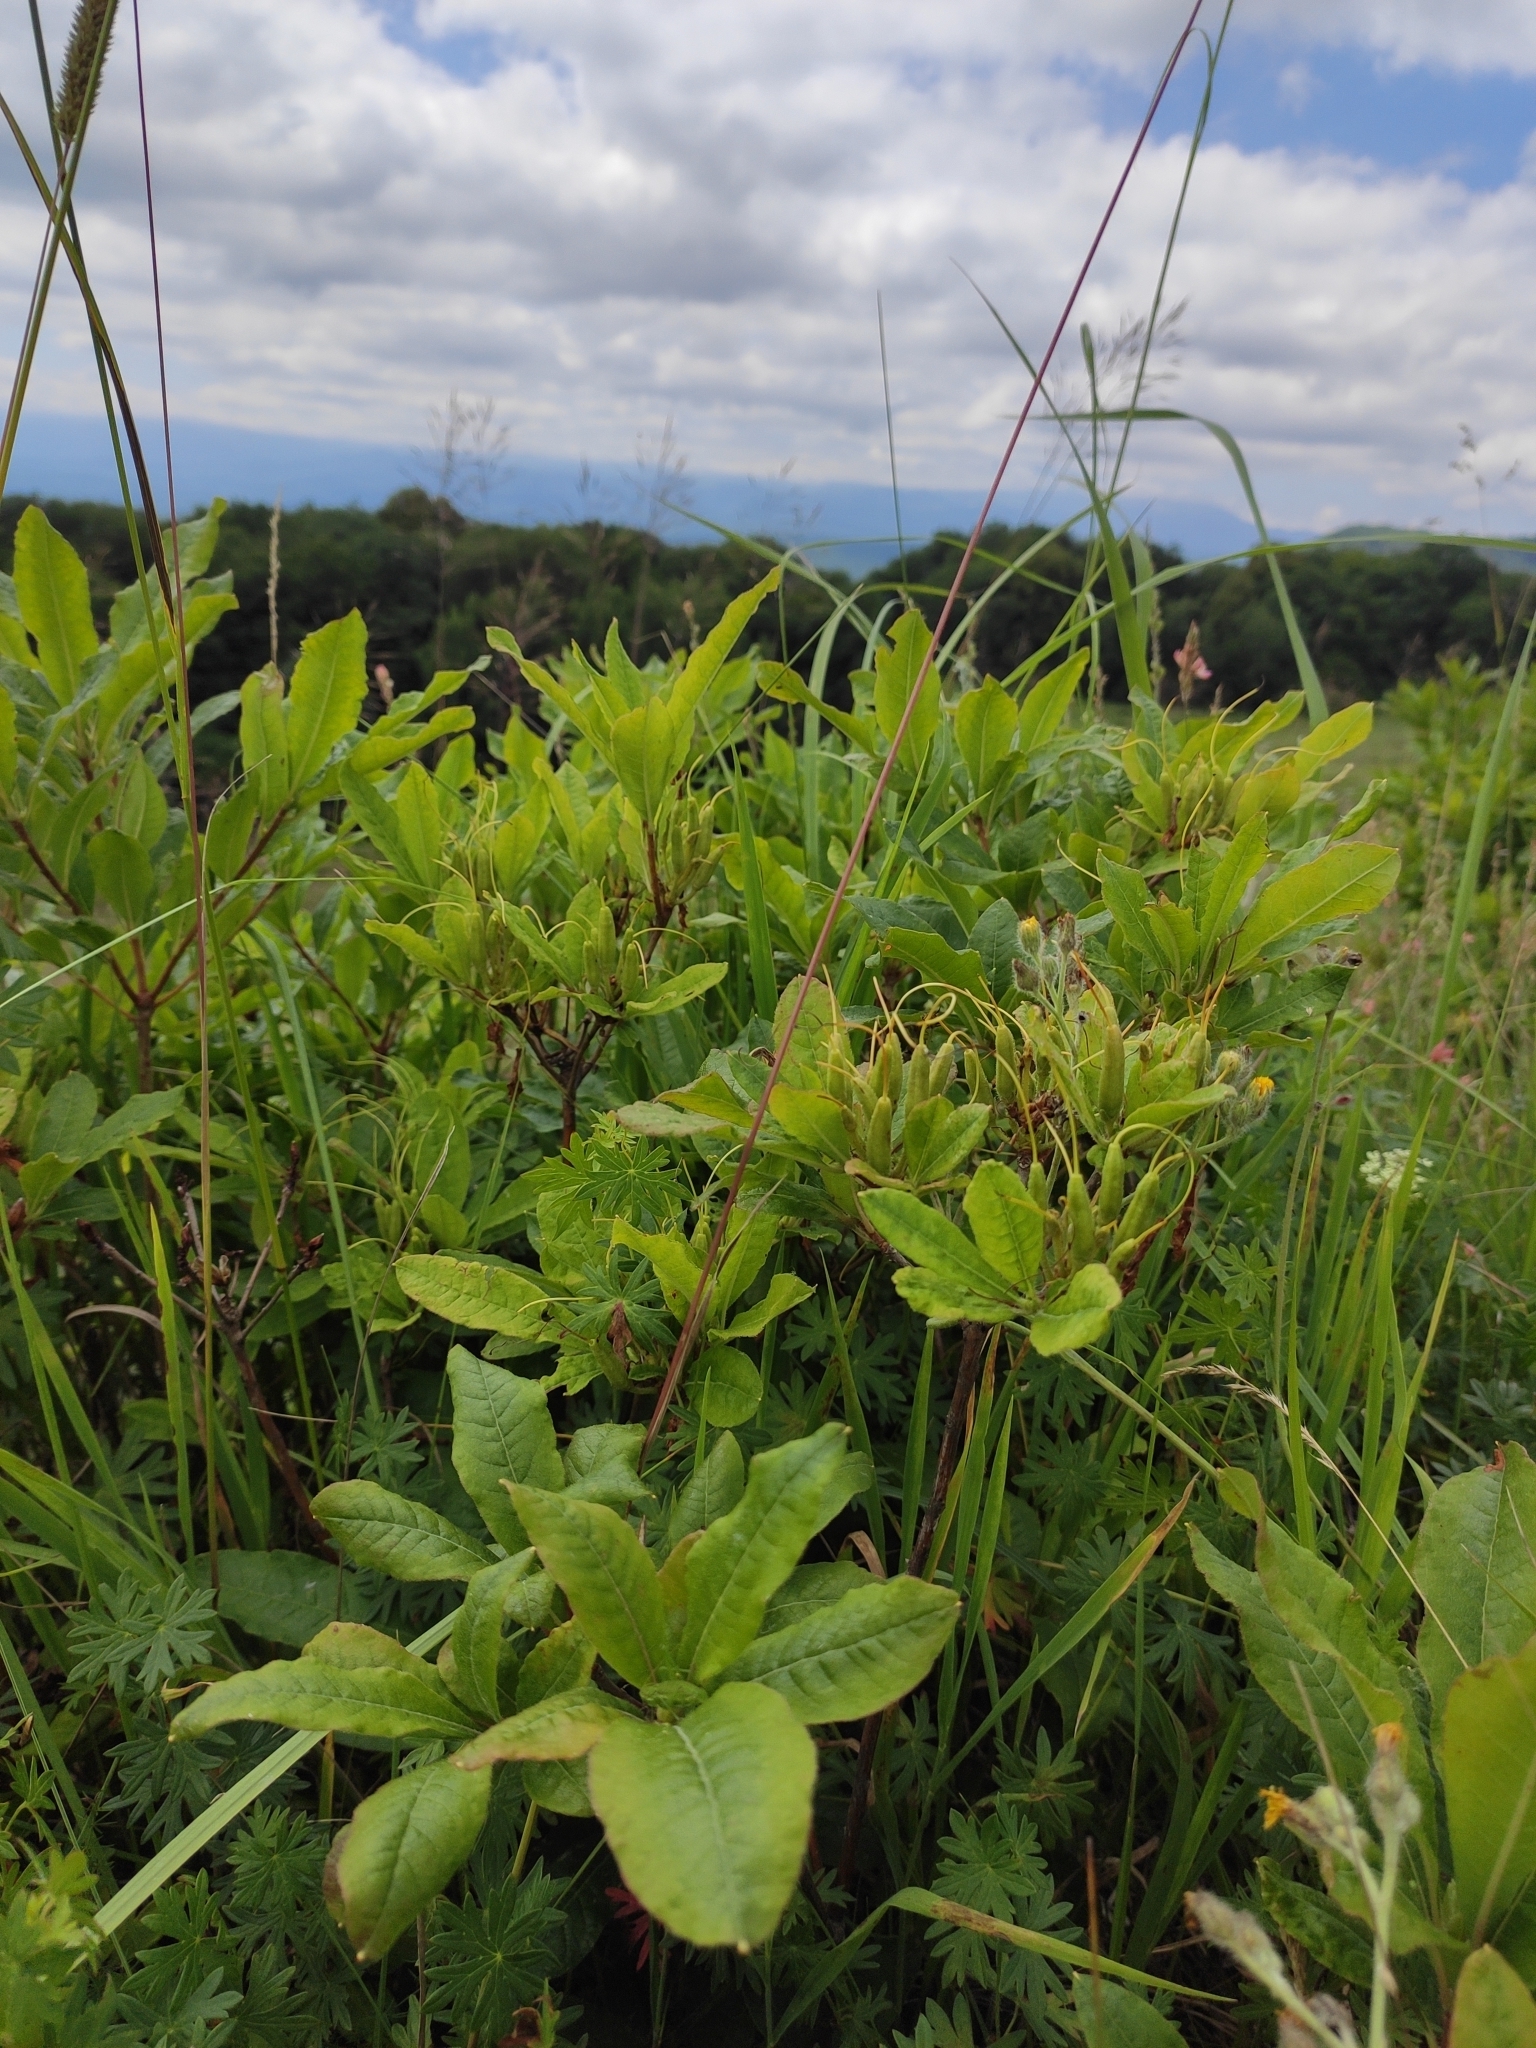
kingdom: Plantae
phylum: Tracheophyta
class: Magnoliopsida
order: Ericales
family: Ericaceae
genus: Rhododendron
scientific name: Rhododendron luteum
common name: Yellow azalea
